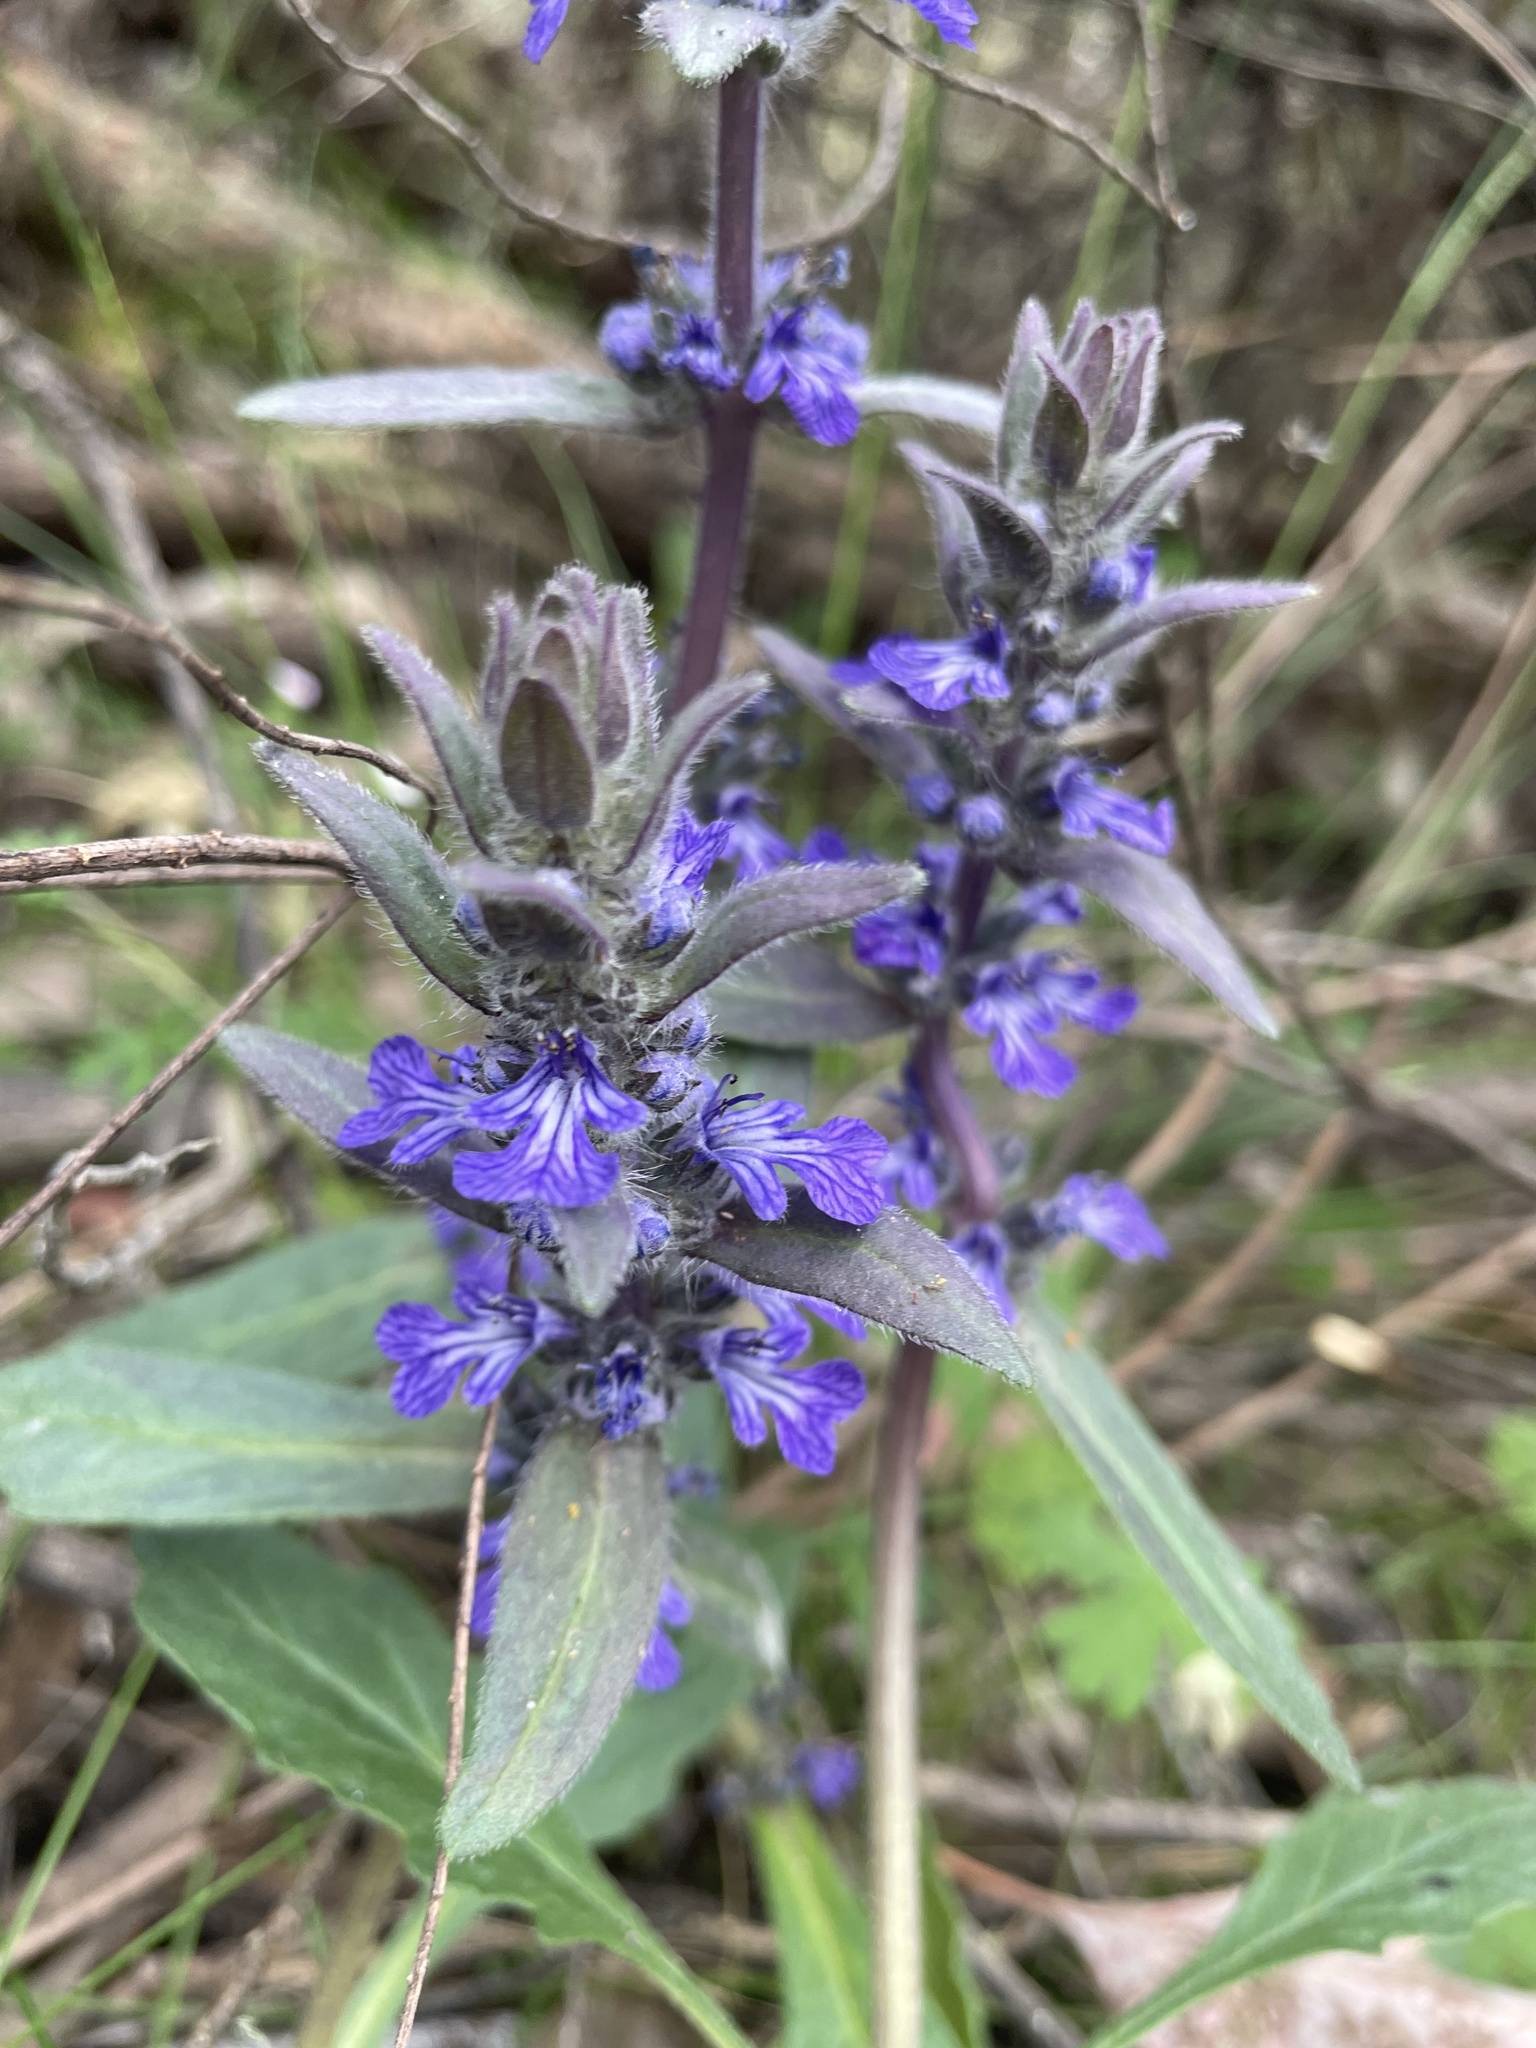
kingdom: Plantae
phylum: Tracheophyta
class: Magnoliopsida
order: Lamiales
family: Lamiaceae
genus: Ajuga
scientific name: Ajuga australis
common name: Australian bugle
